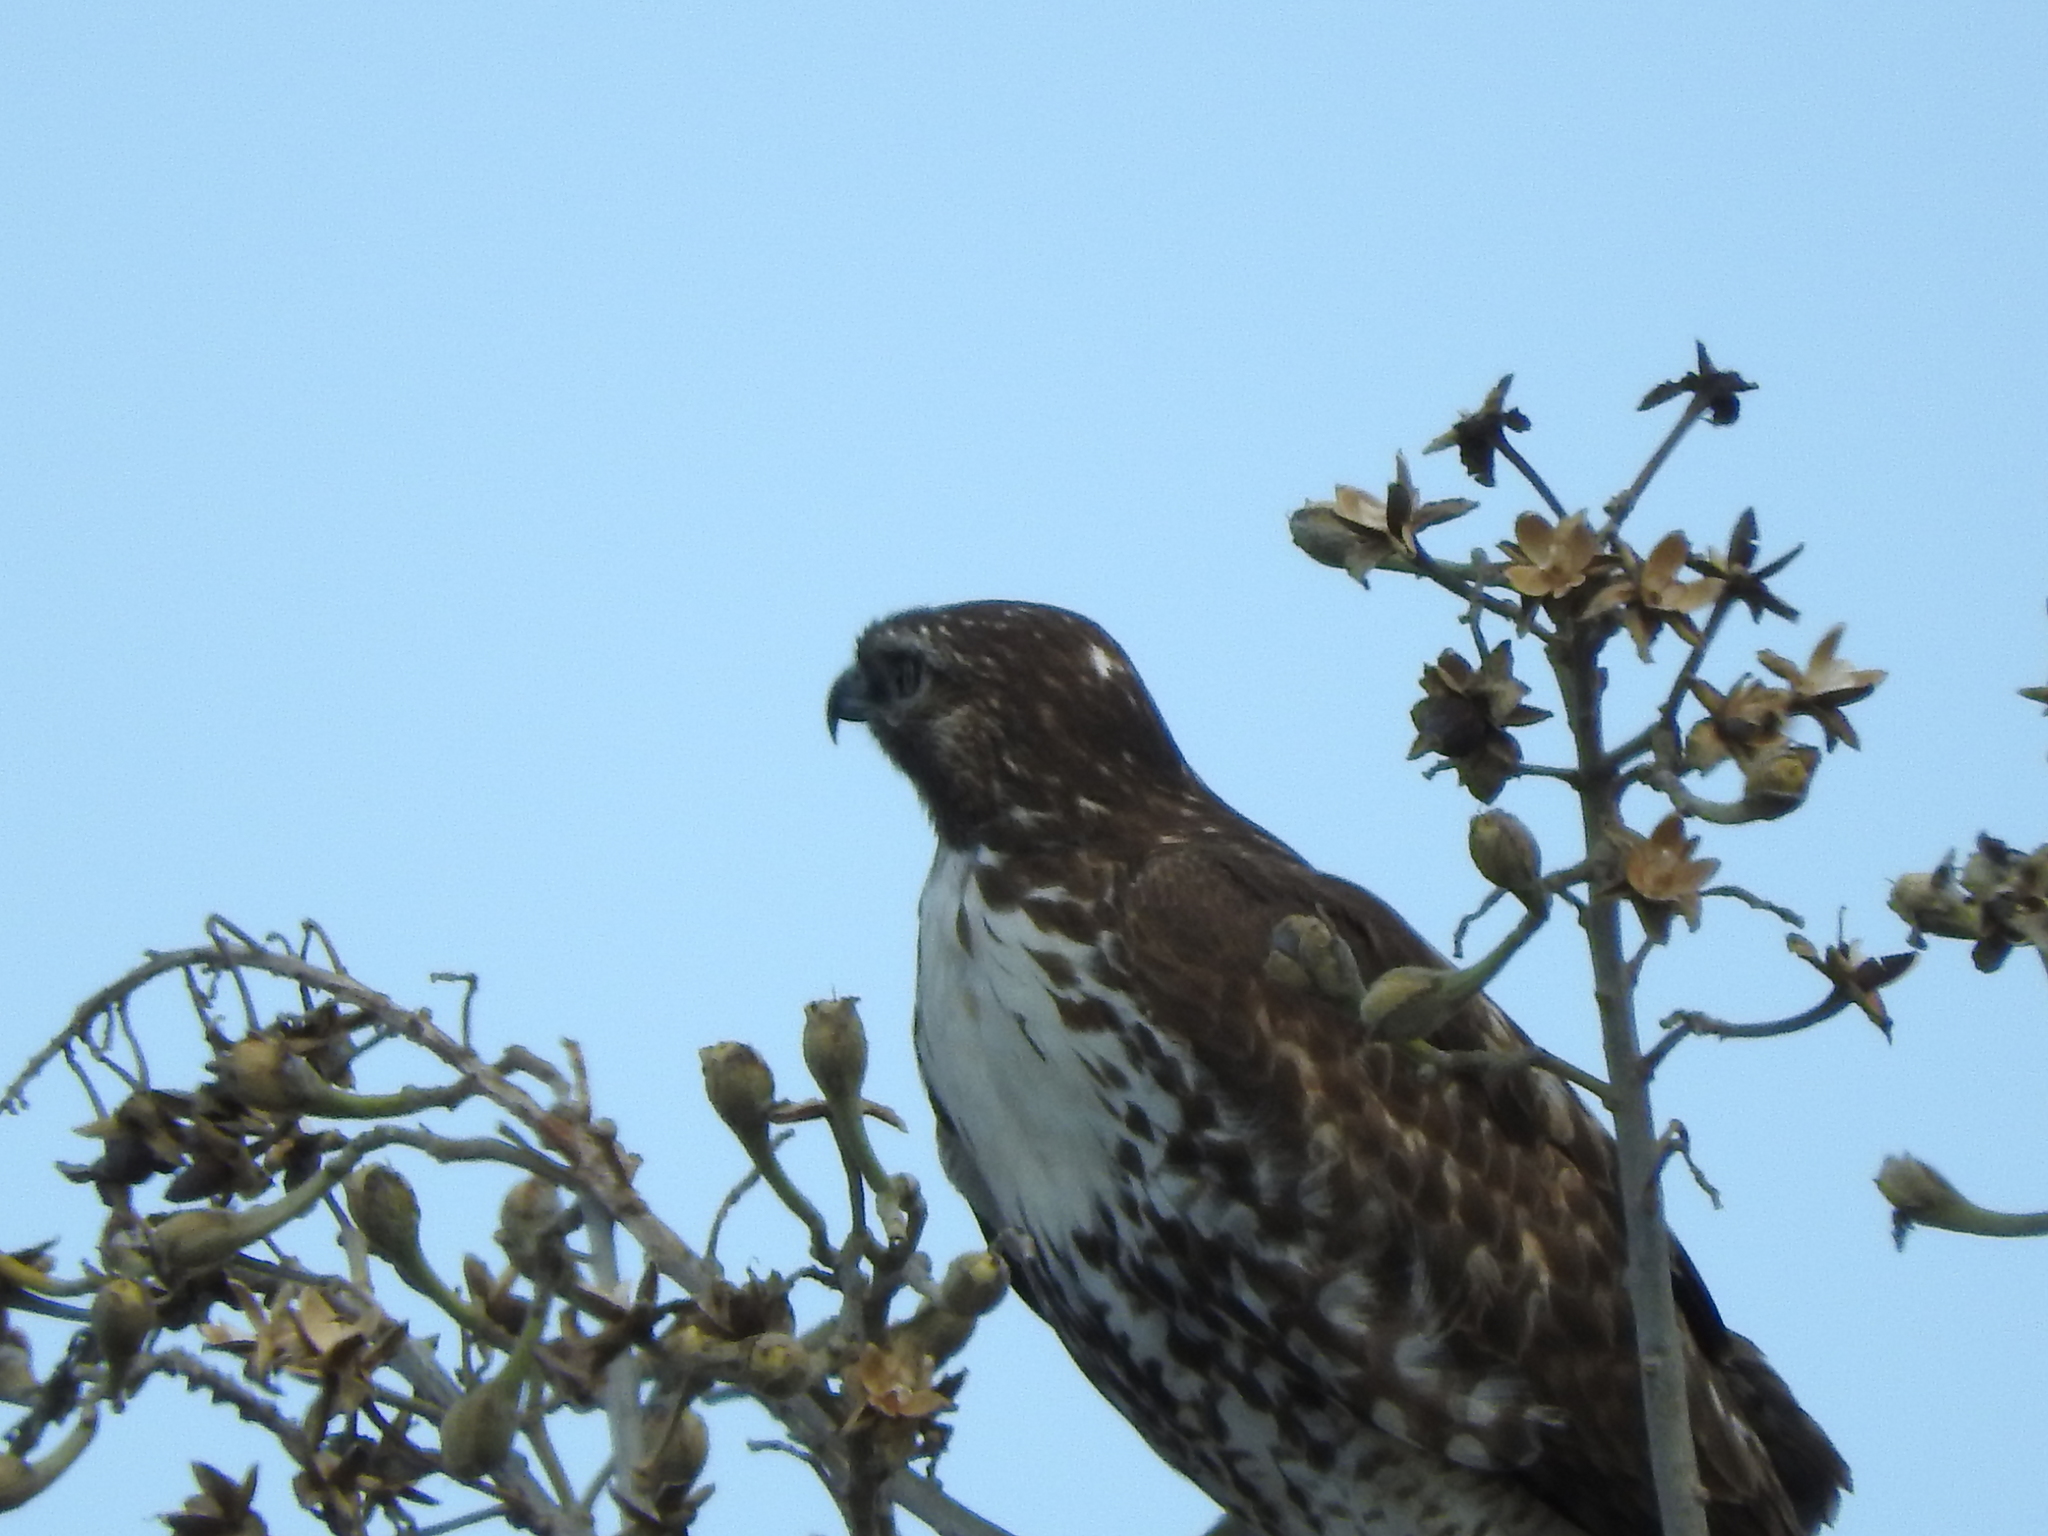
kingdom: Animalia
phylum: Chordata
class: Aves
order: Accipitriformes
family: Accipitridae
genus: Buteo
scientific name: Buteo jamaicensis
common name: Red-tailed hawk
